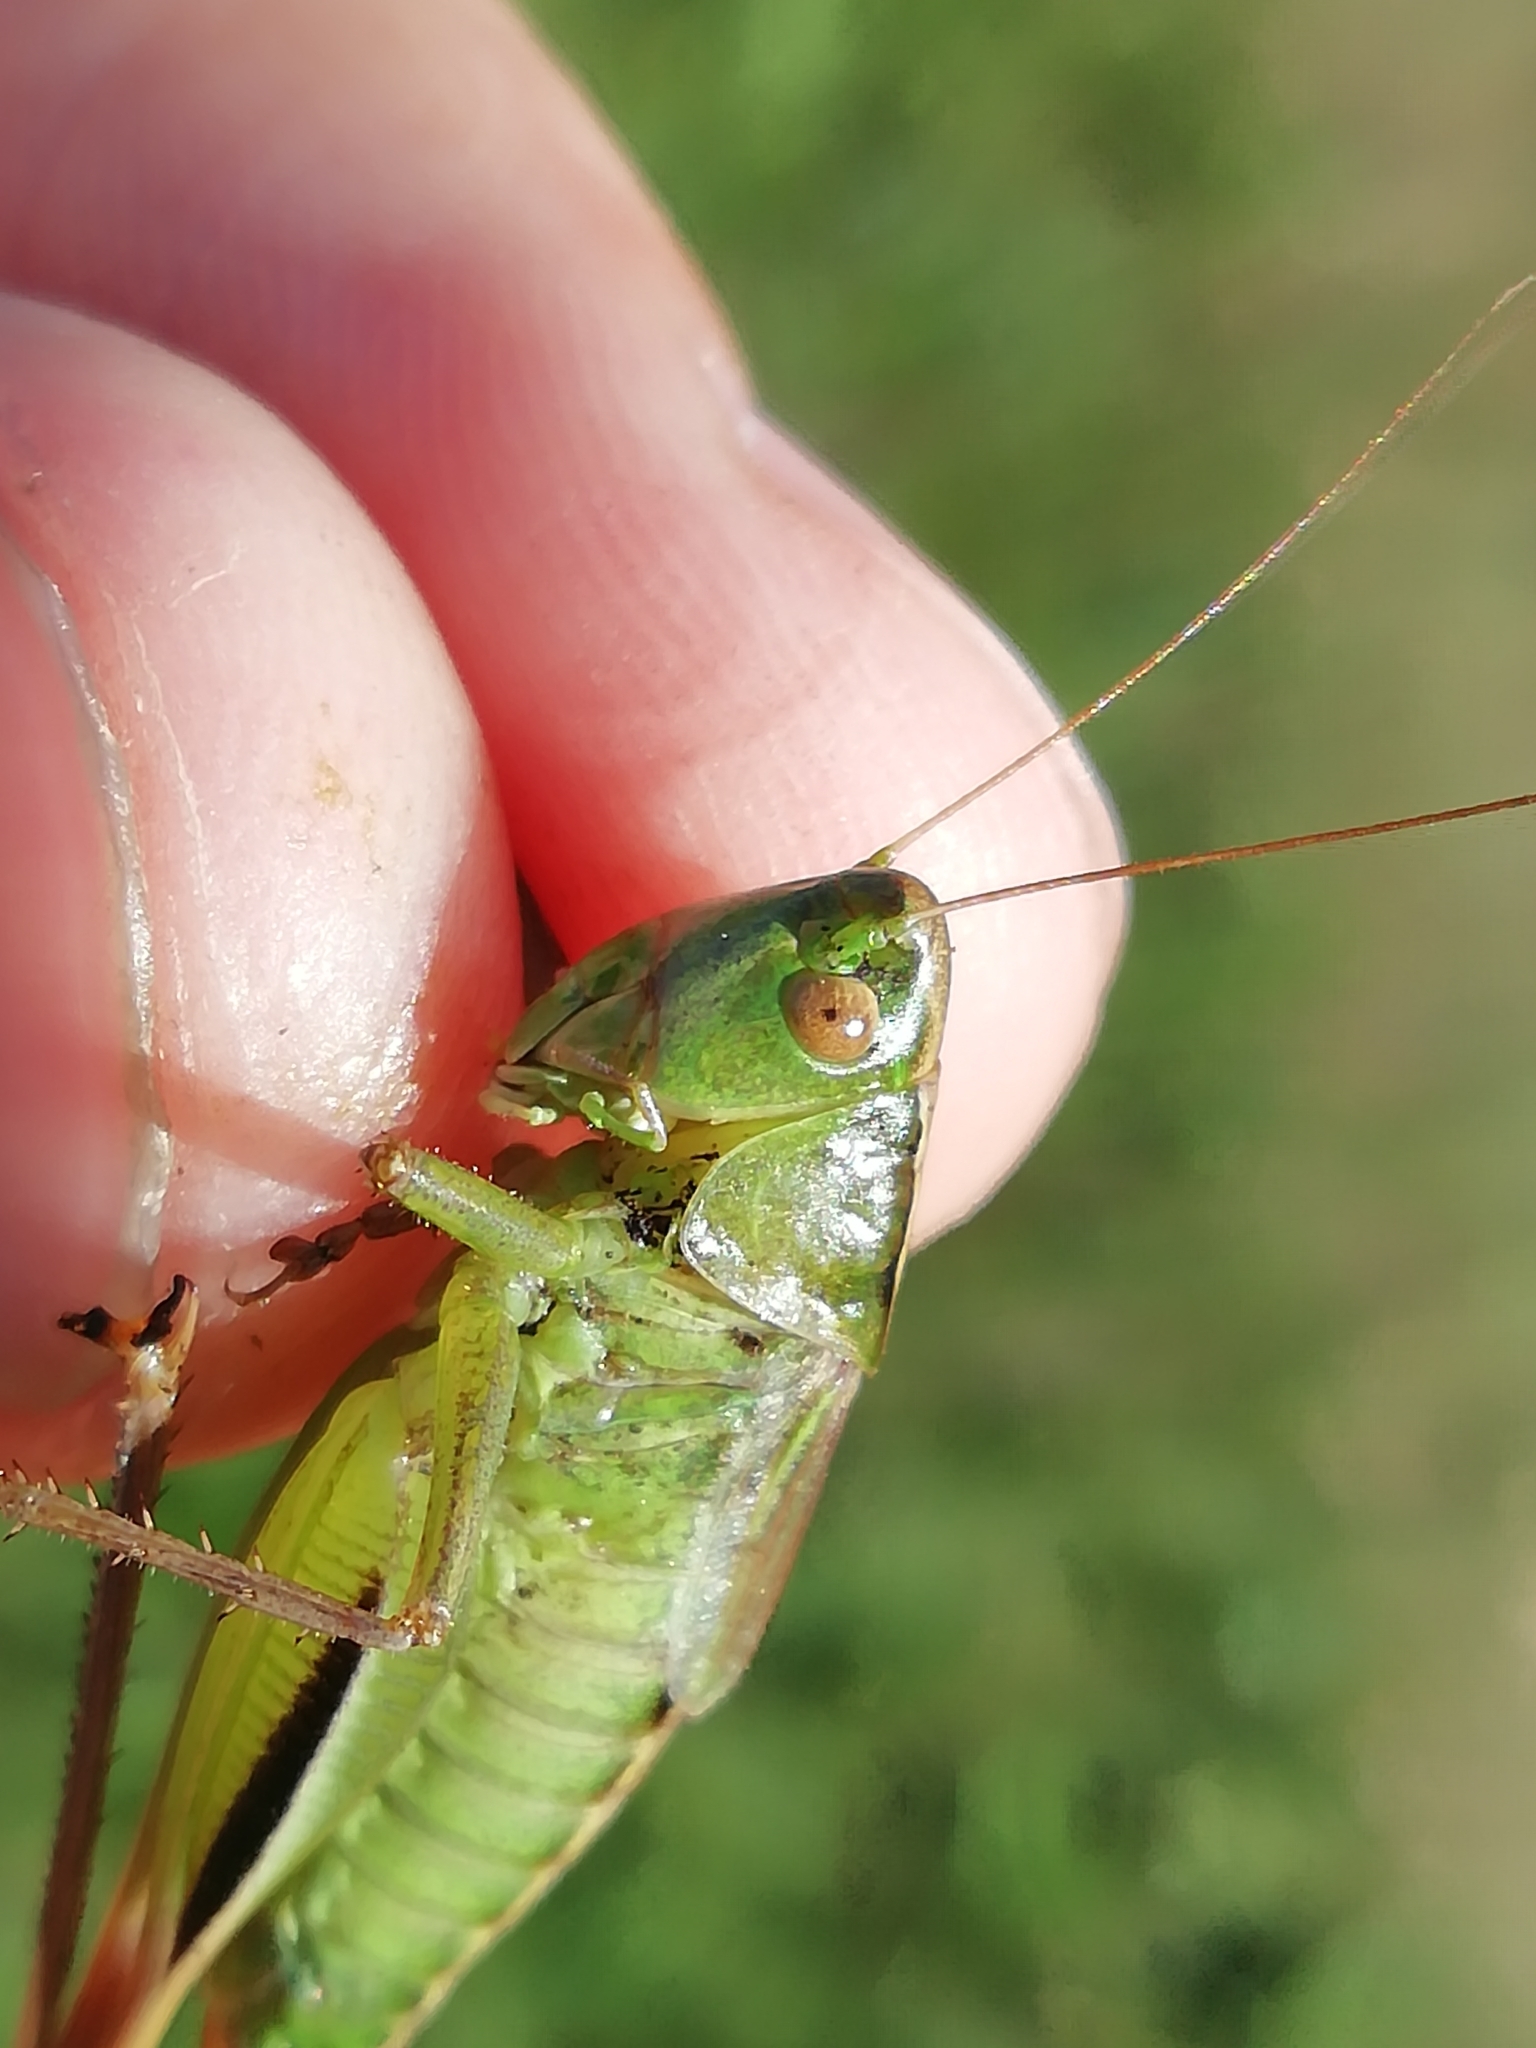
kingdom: Animalia
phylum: Arthropoda
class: Insecta
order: Orthoptera
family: Tettigoniidae
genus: Bicolorana
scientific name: Bicolorana bicolor
